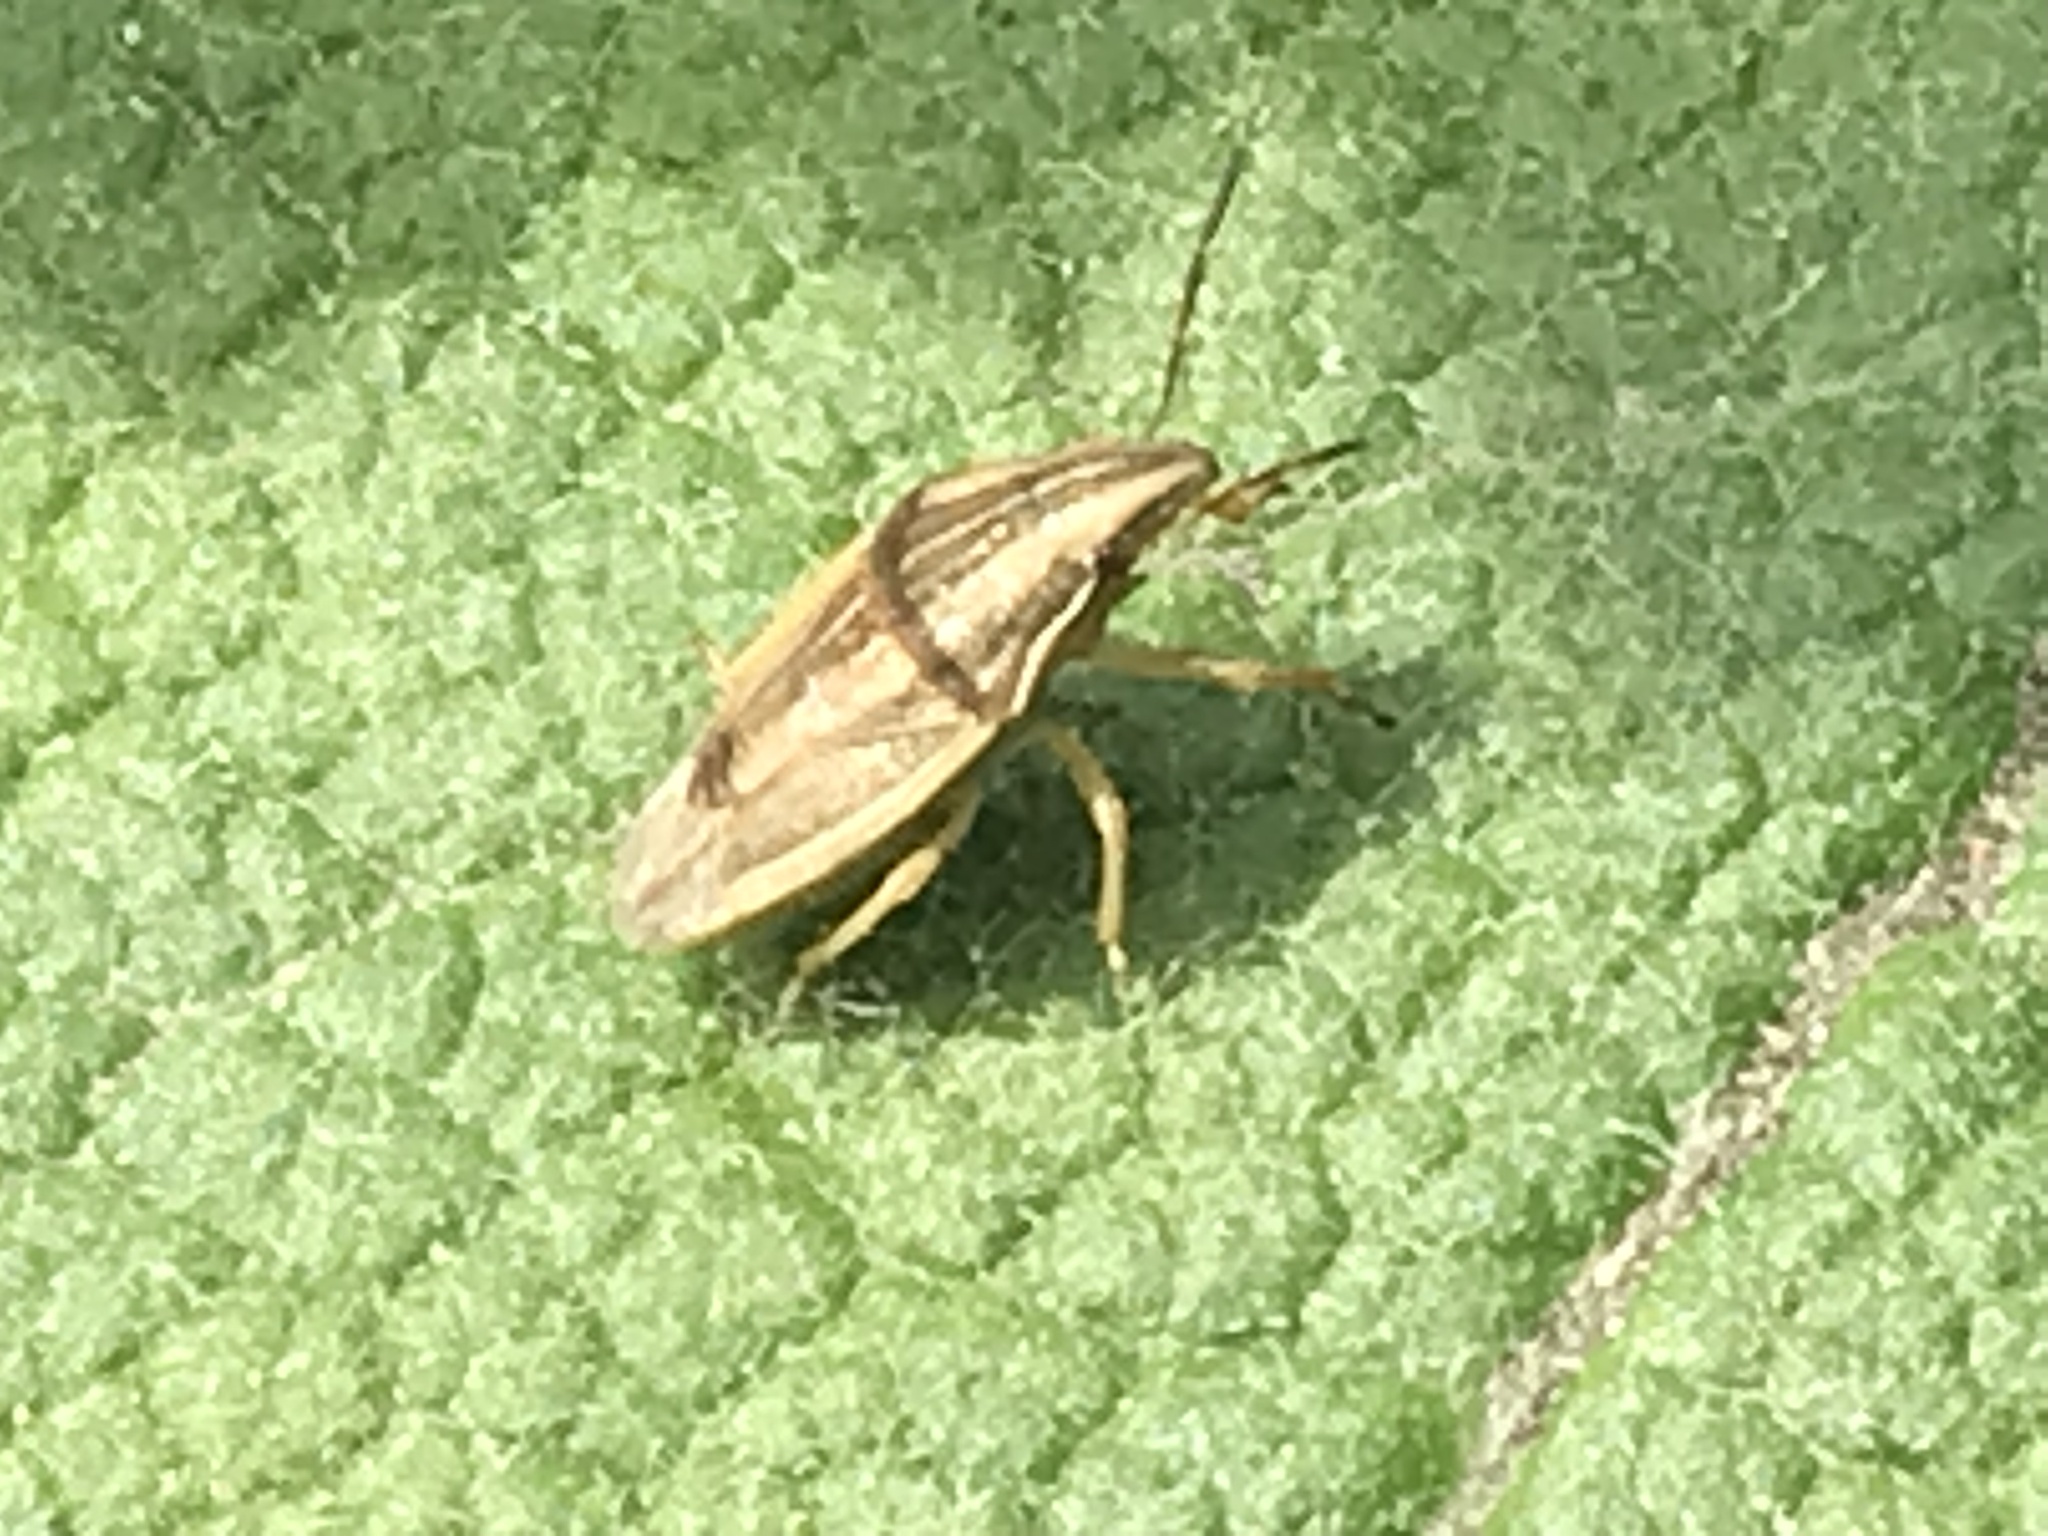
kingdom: Animalia
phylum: Arthropoda
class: Insecta
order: Hemiptera
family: Pentatomidae
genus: Aelia
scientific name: Aelia acuminata
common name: Bishop's mitre
